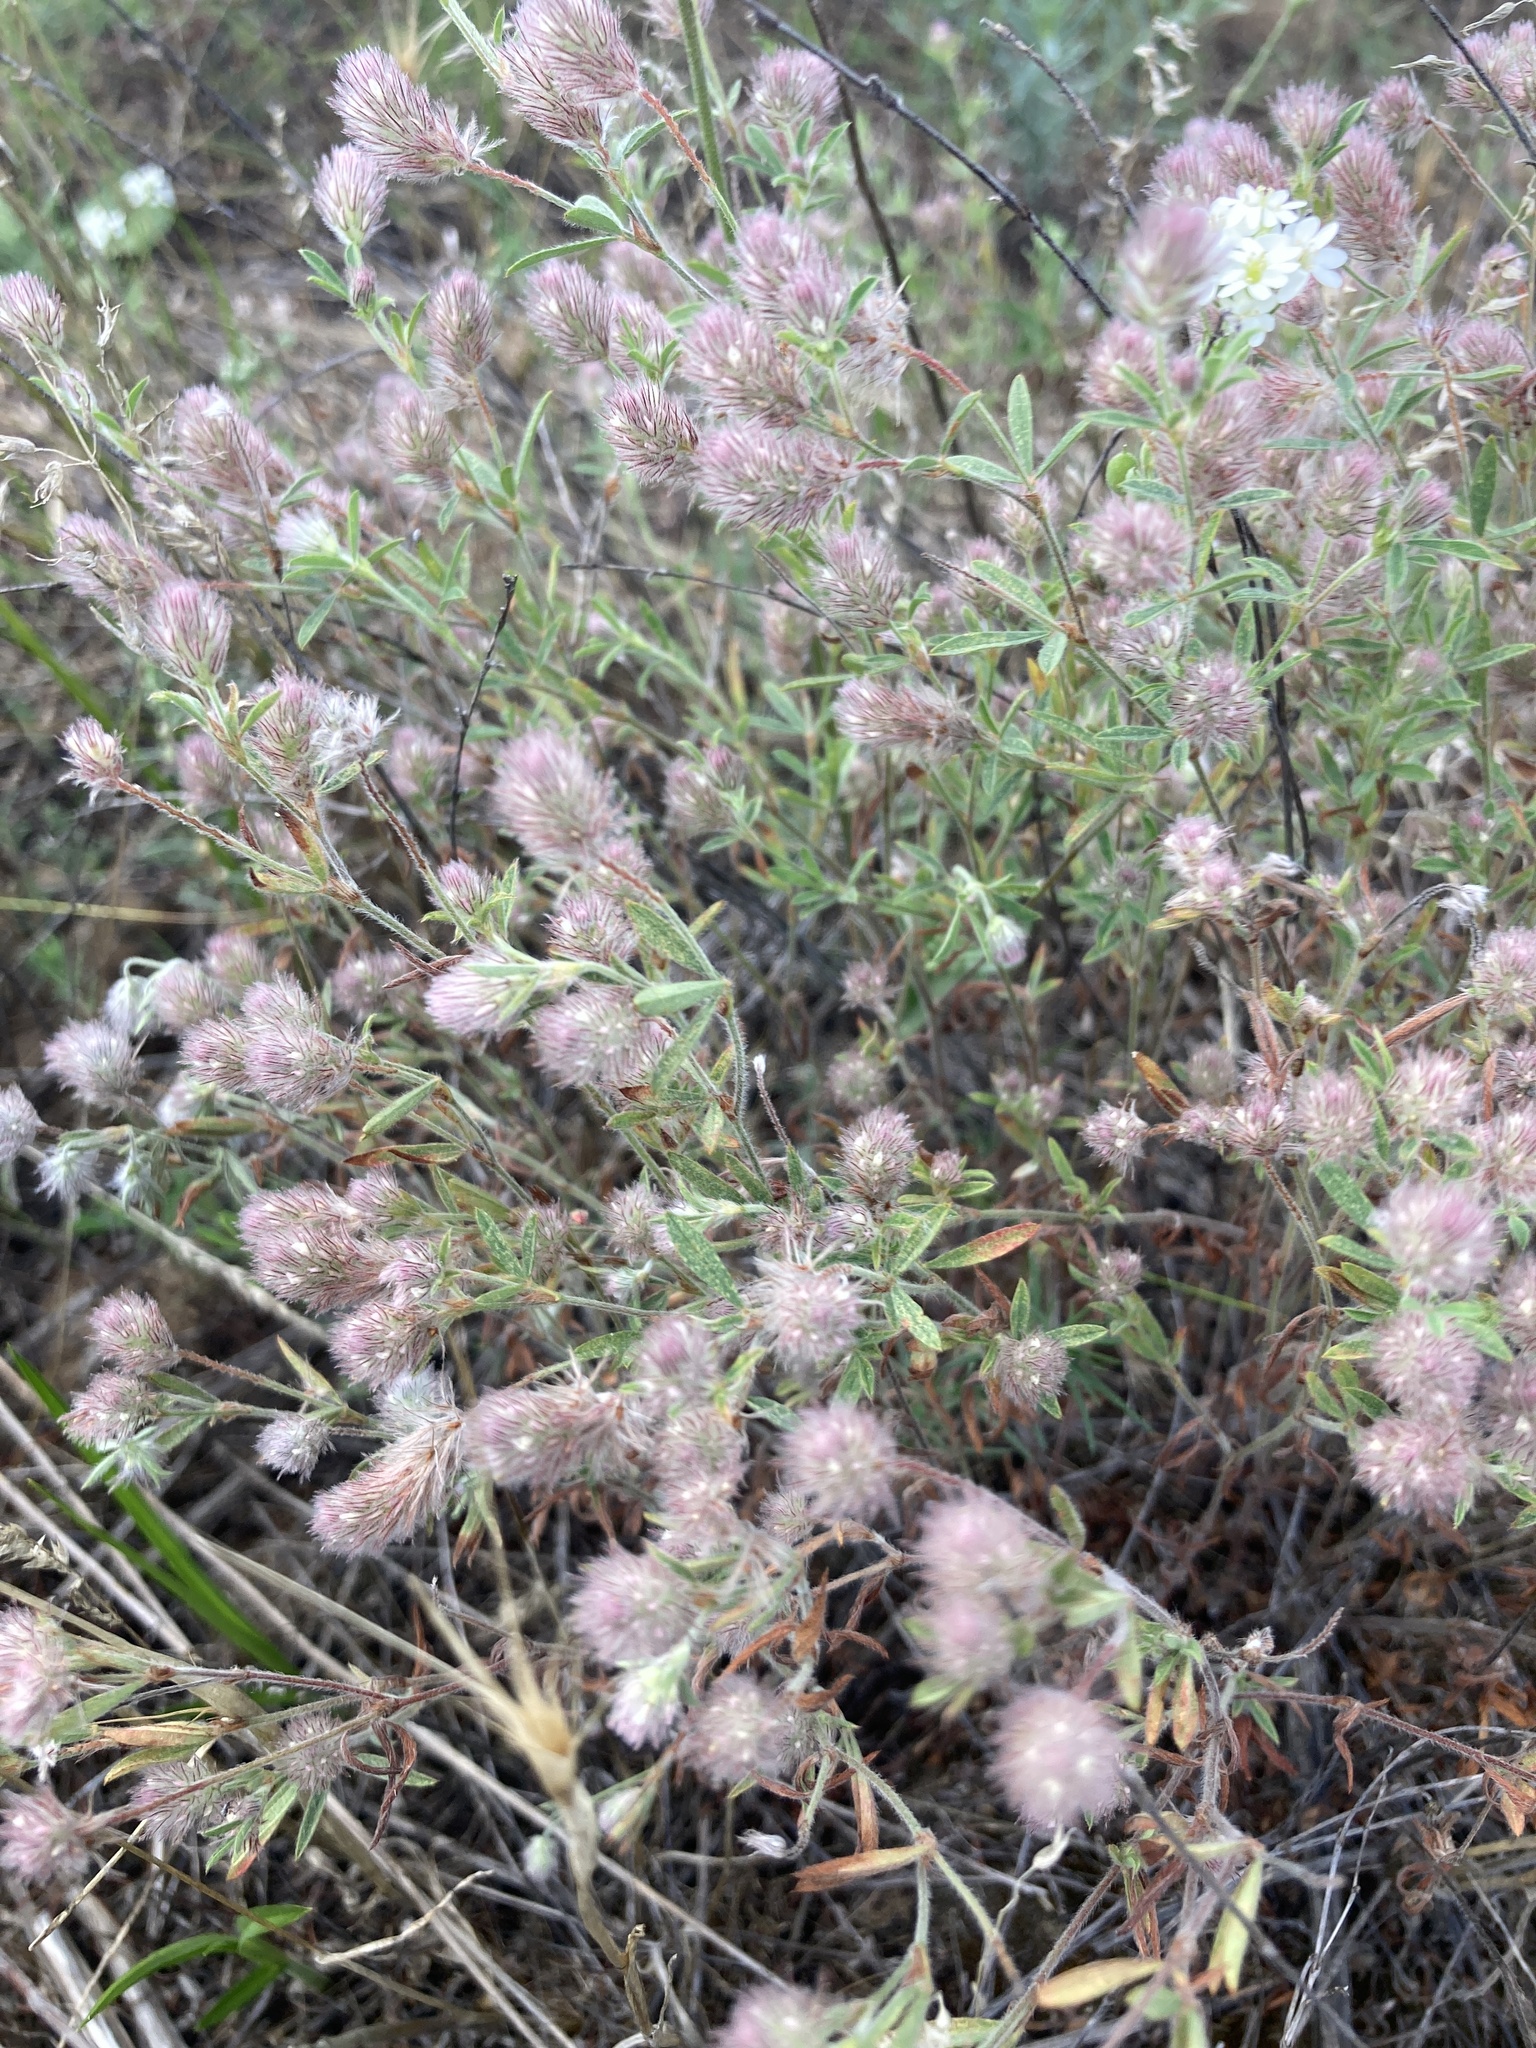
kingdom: Plantae
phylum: Tracheophyta
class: Magnoliopsida
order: Fabales
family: Fabaceae
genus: Trifolium
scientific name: Trifolium arvense
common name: Hare's-foot clover
